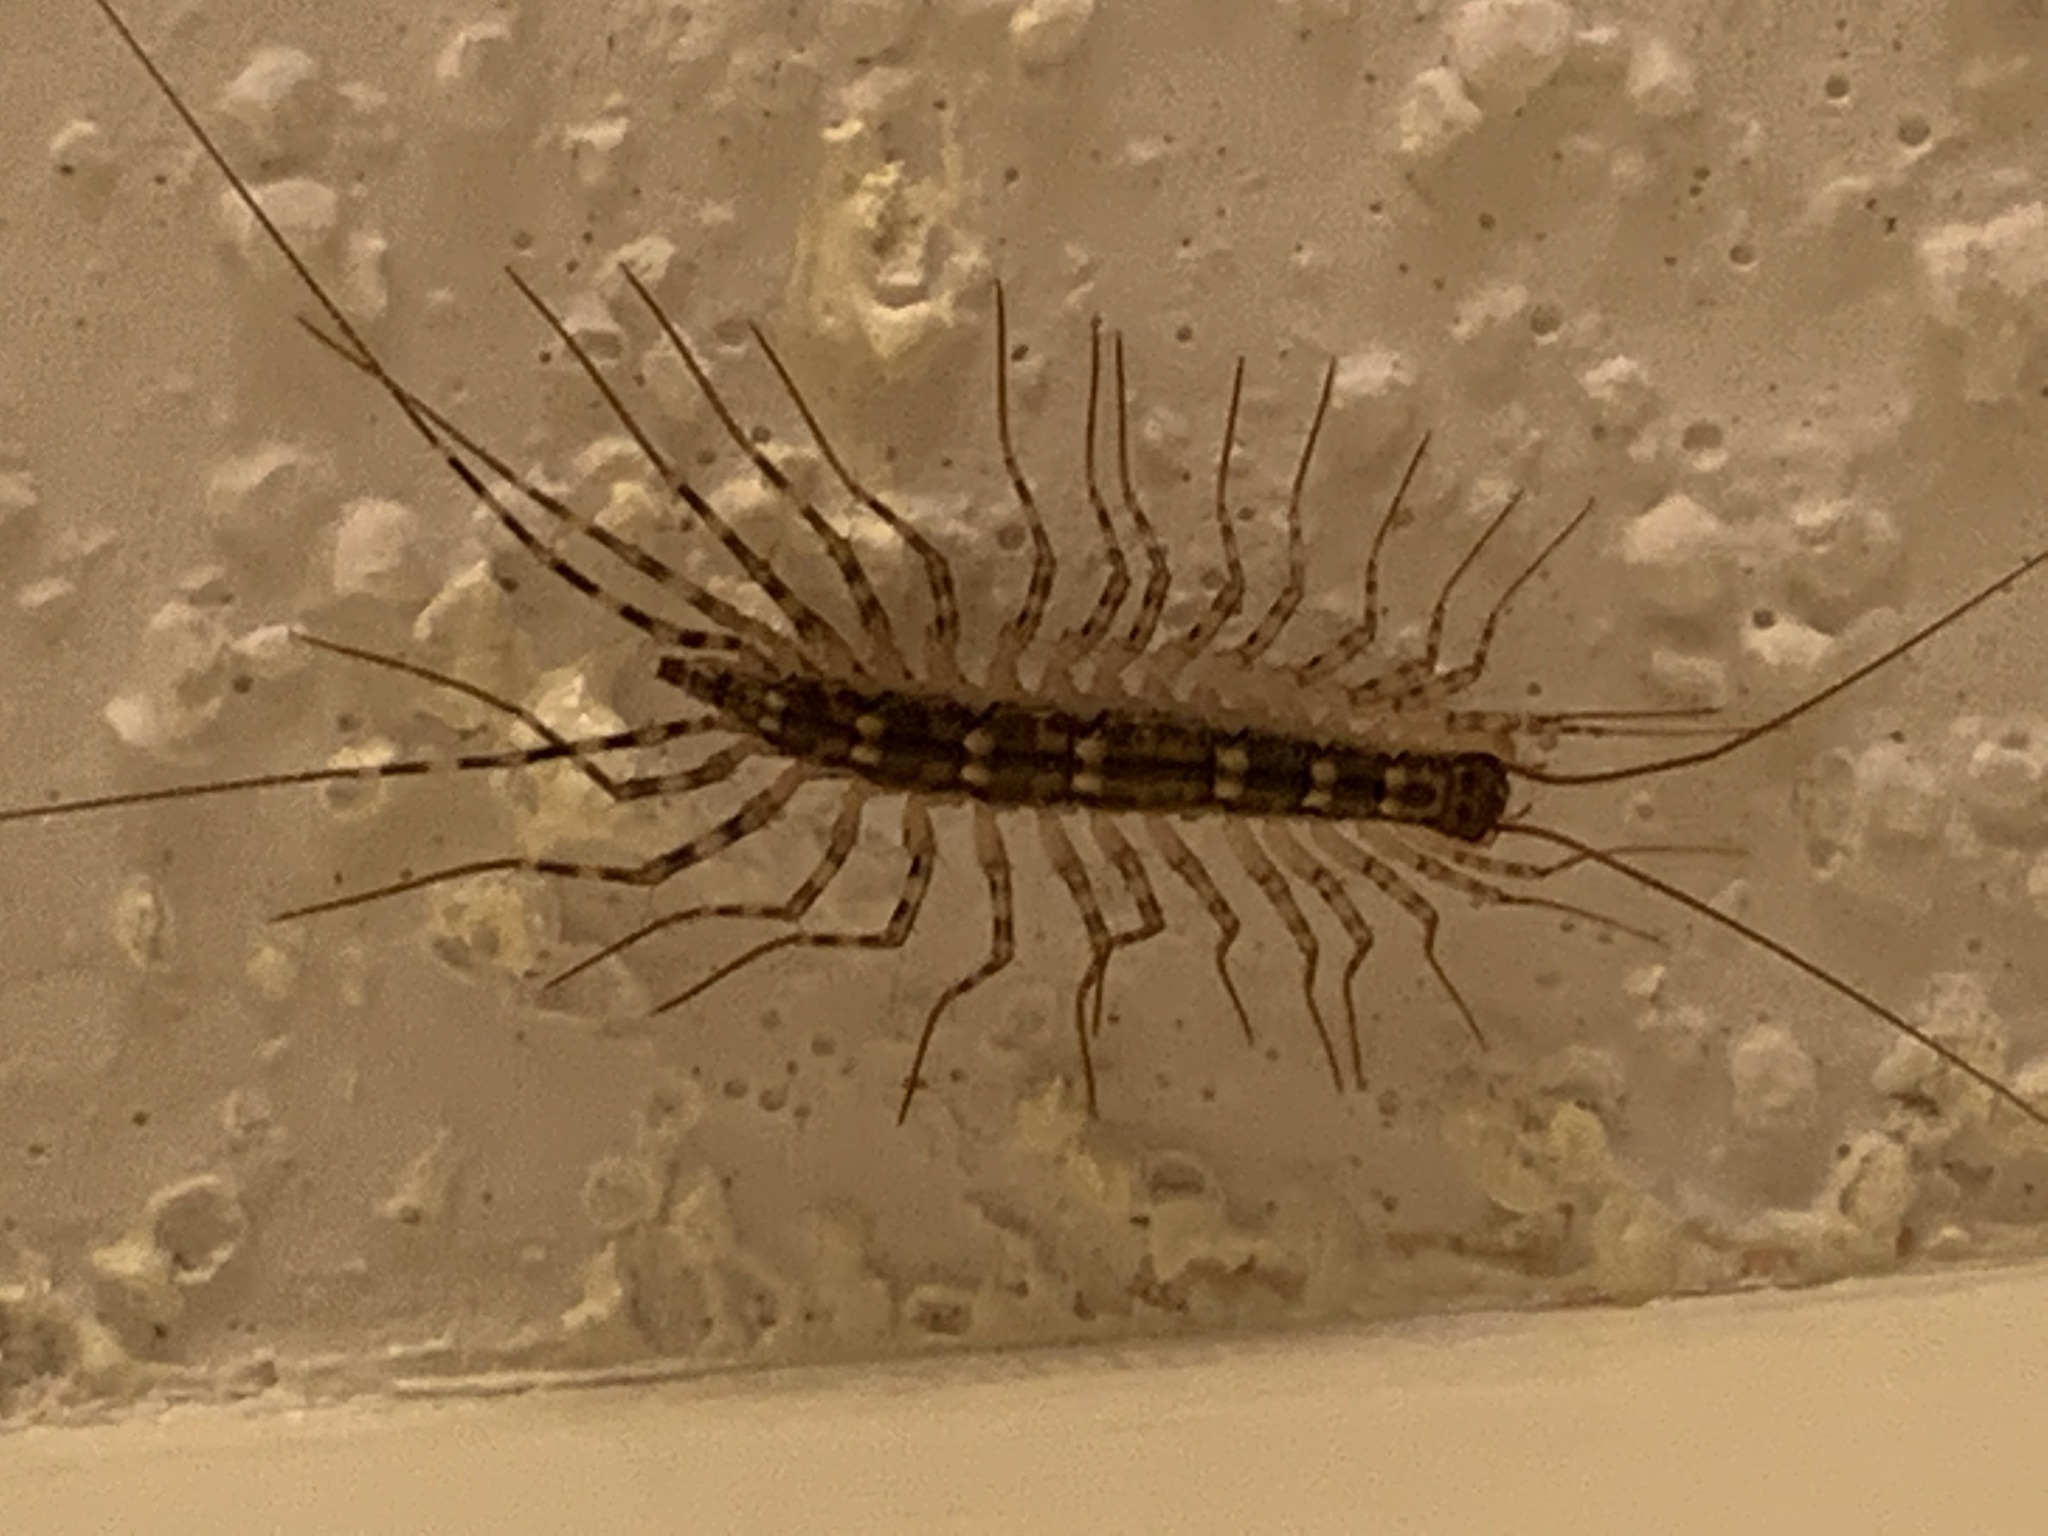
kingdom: Animalia
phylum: Arthropoda
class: Chilopoda
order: Scutigeromorpha
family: Scutigeridae
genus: Scutigera
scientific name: Scutigera coleoptrata
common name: House centipede
